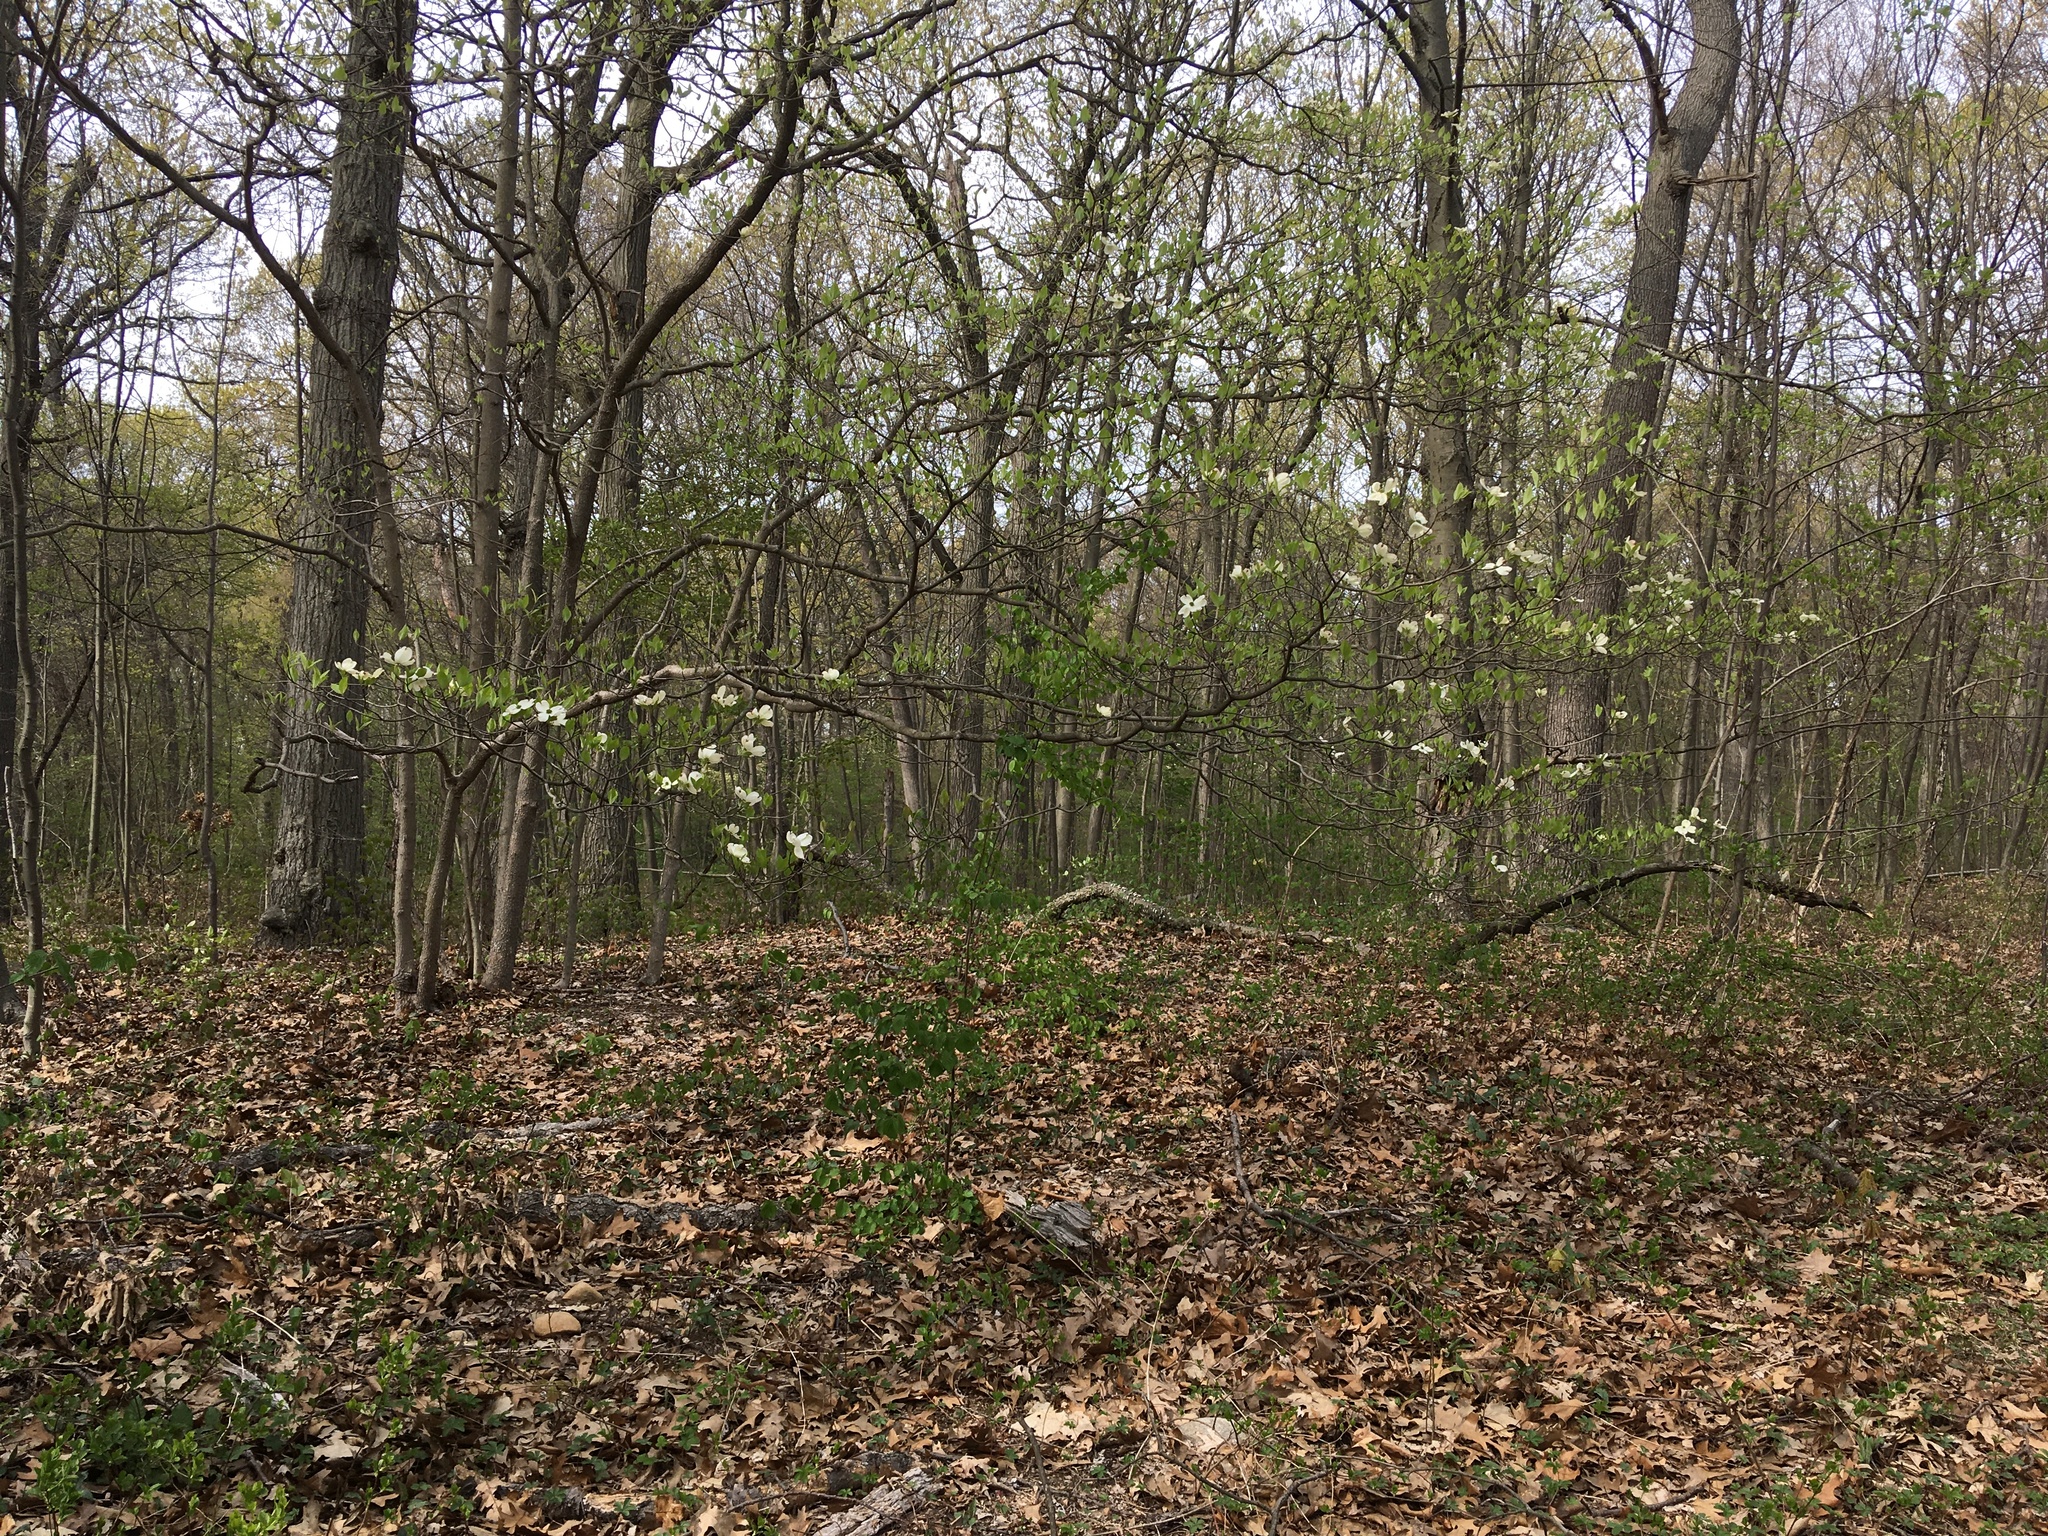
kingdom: Plantae
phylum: Tracheophyta
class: Magnoliopsida
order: Cornales
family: Cornaceae
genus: Cornus
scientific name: Cornus florida
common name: Flowering dogwood
